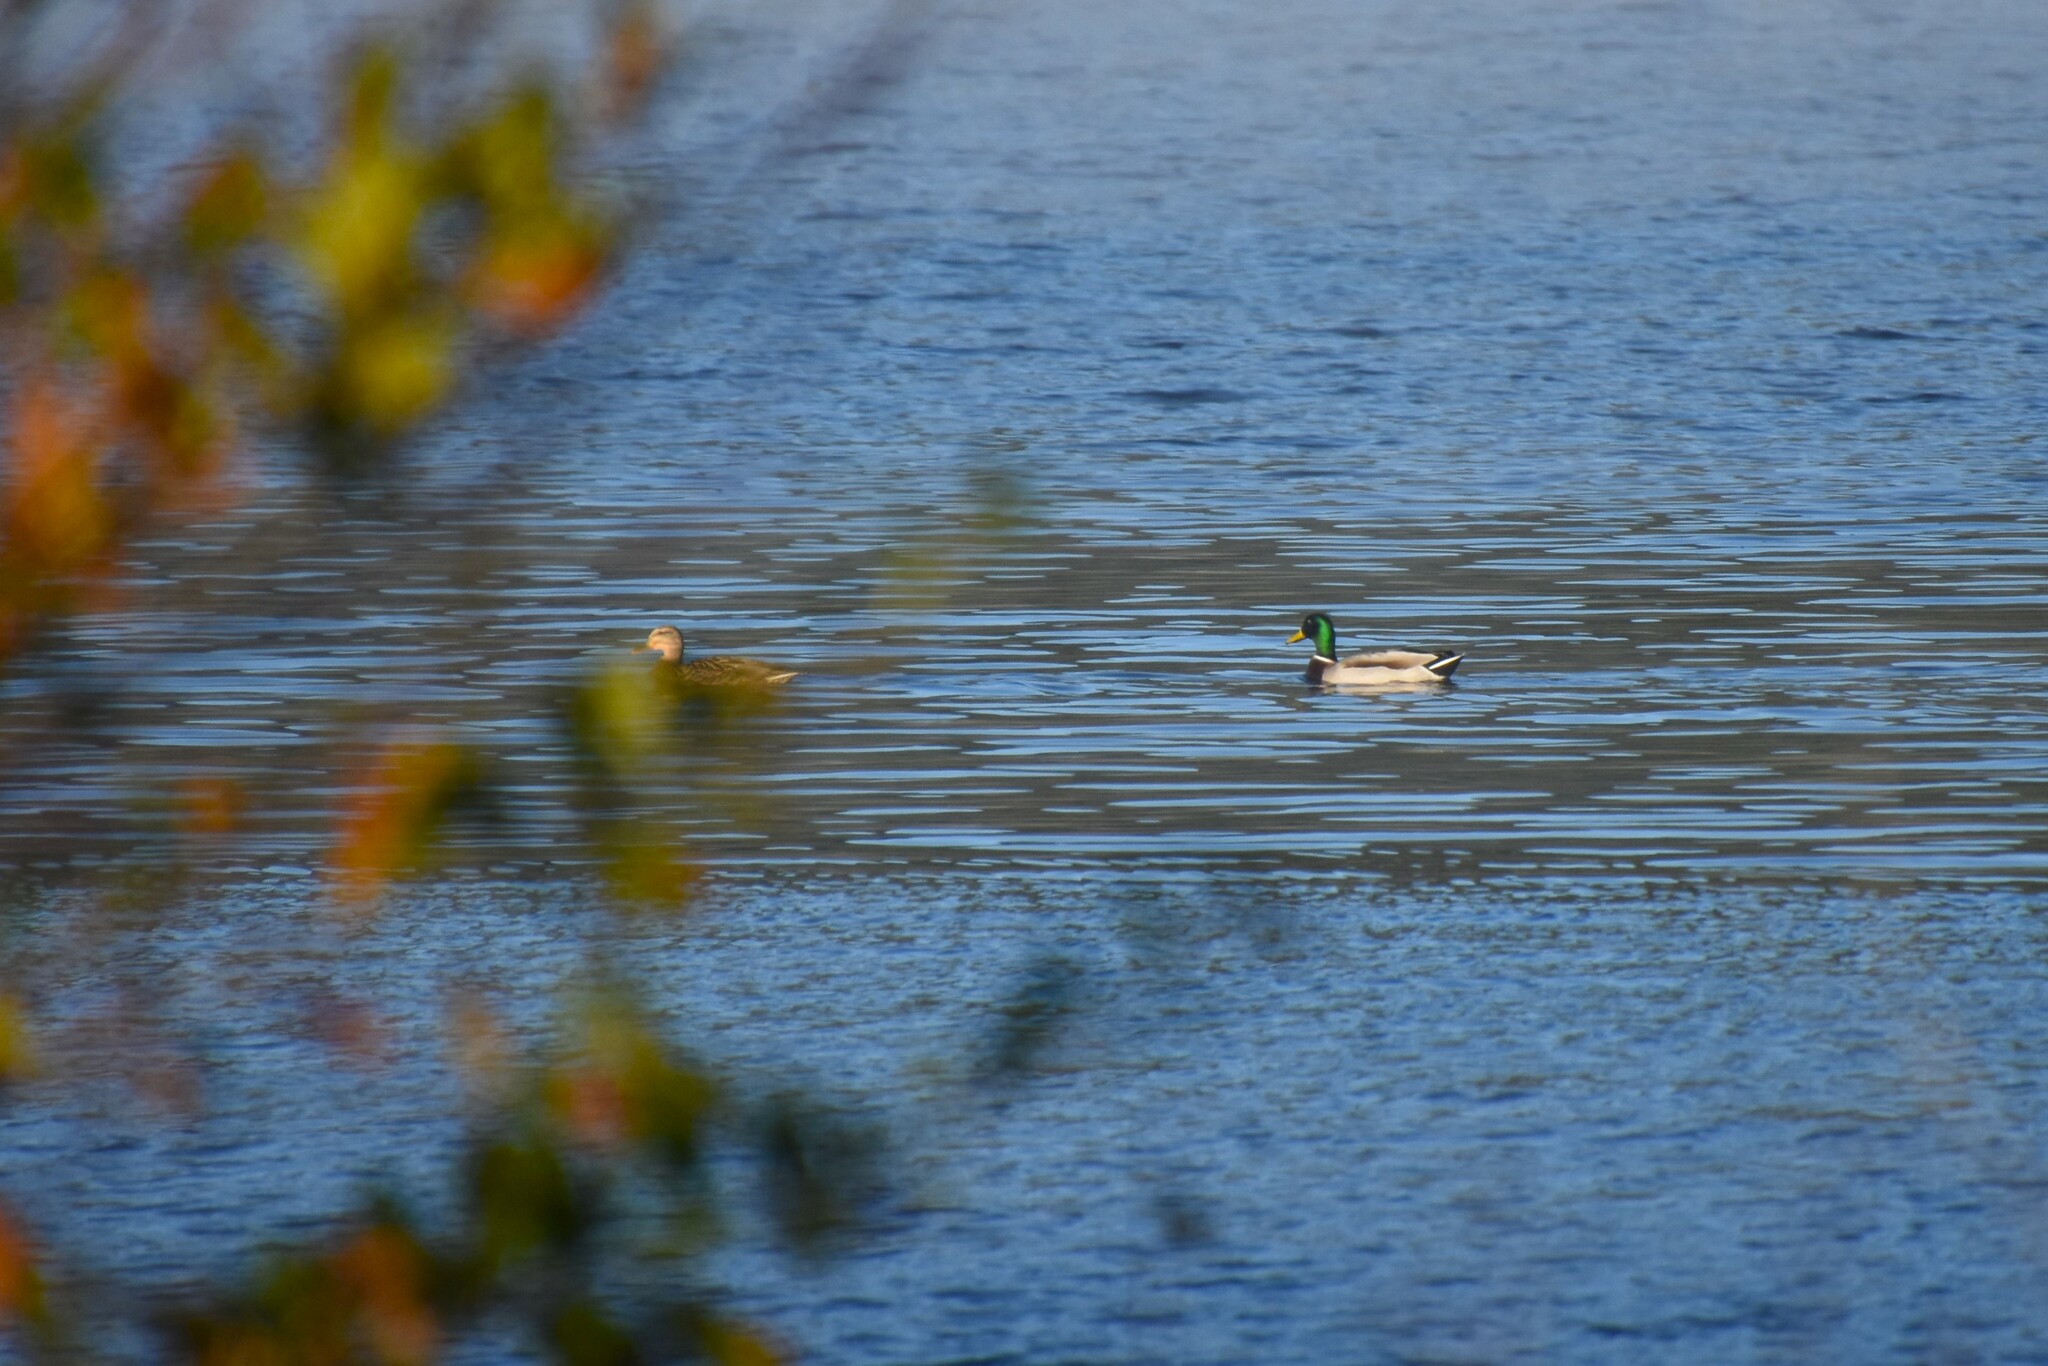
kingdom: Animalia
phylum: Chordata
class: Aves
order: Anseriformes
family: Anatidae
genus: Anas
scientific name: Anas platyrhynchos
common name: Mallard
